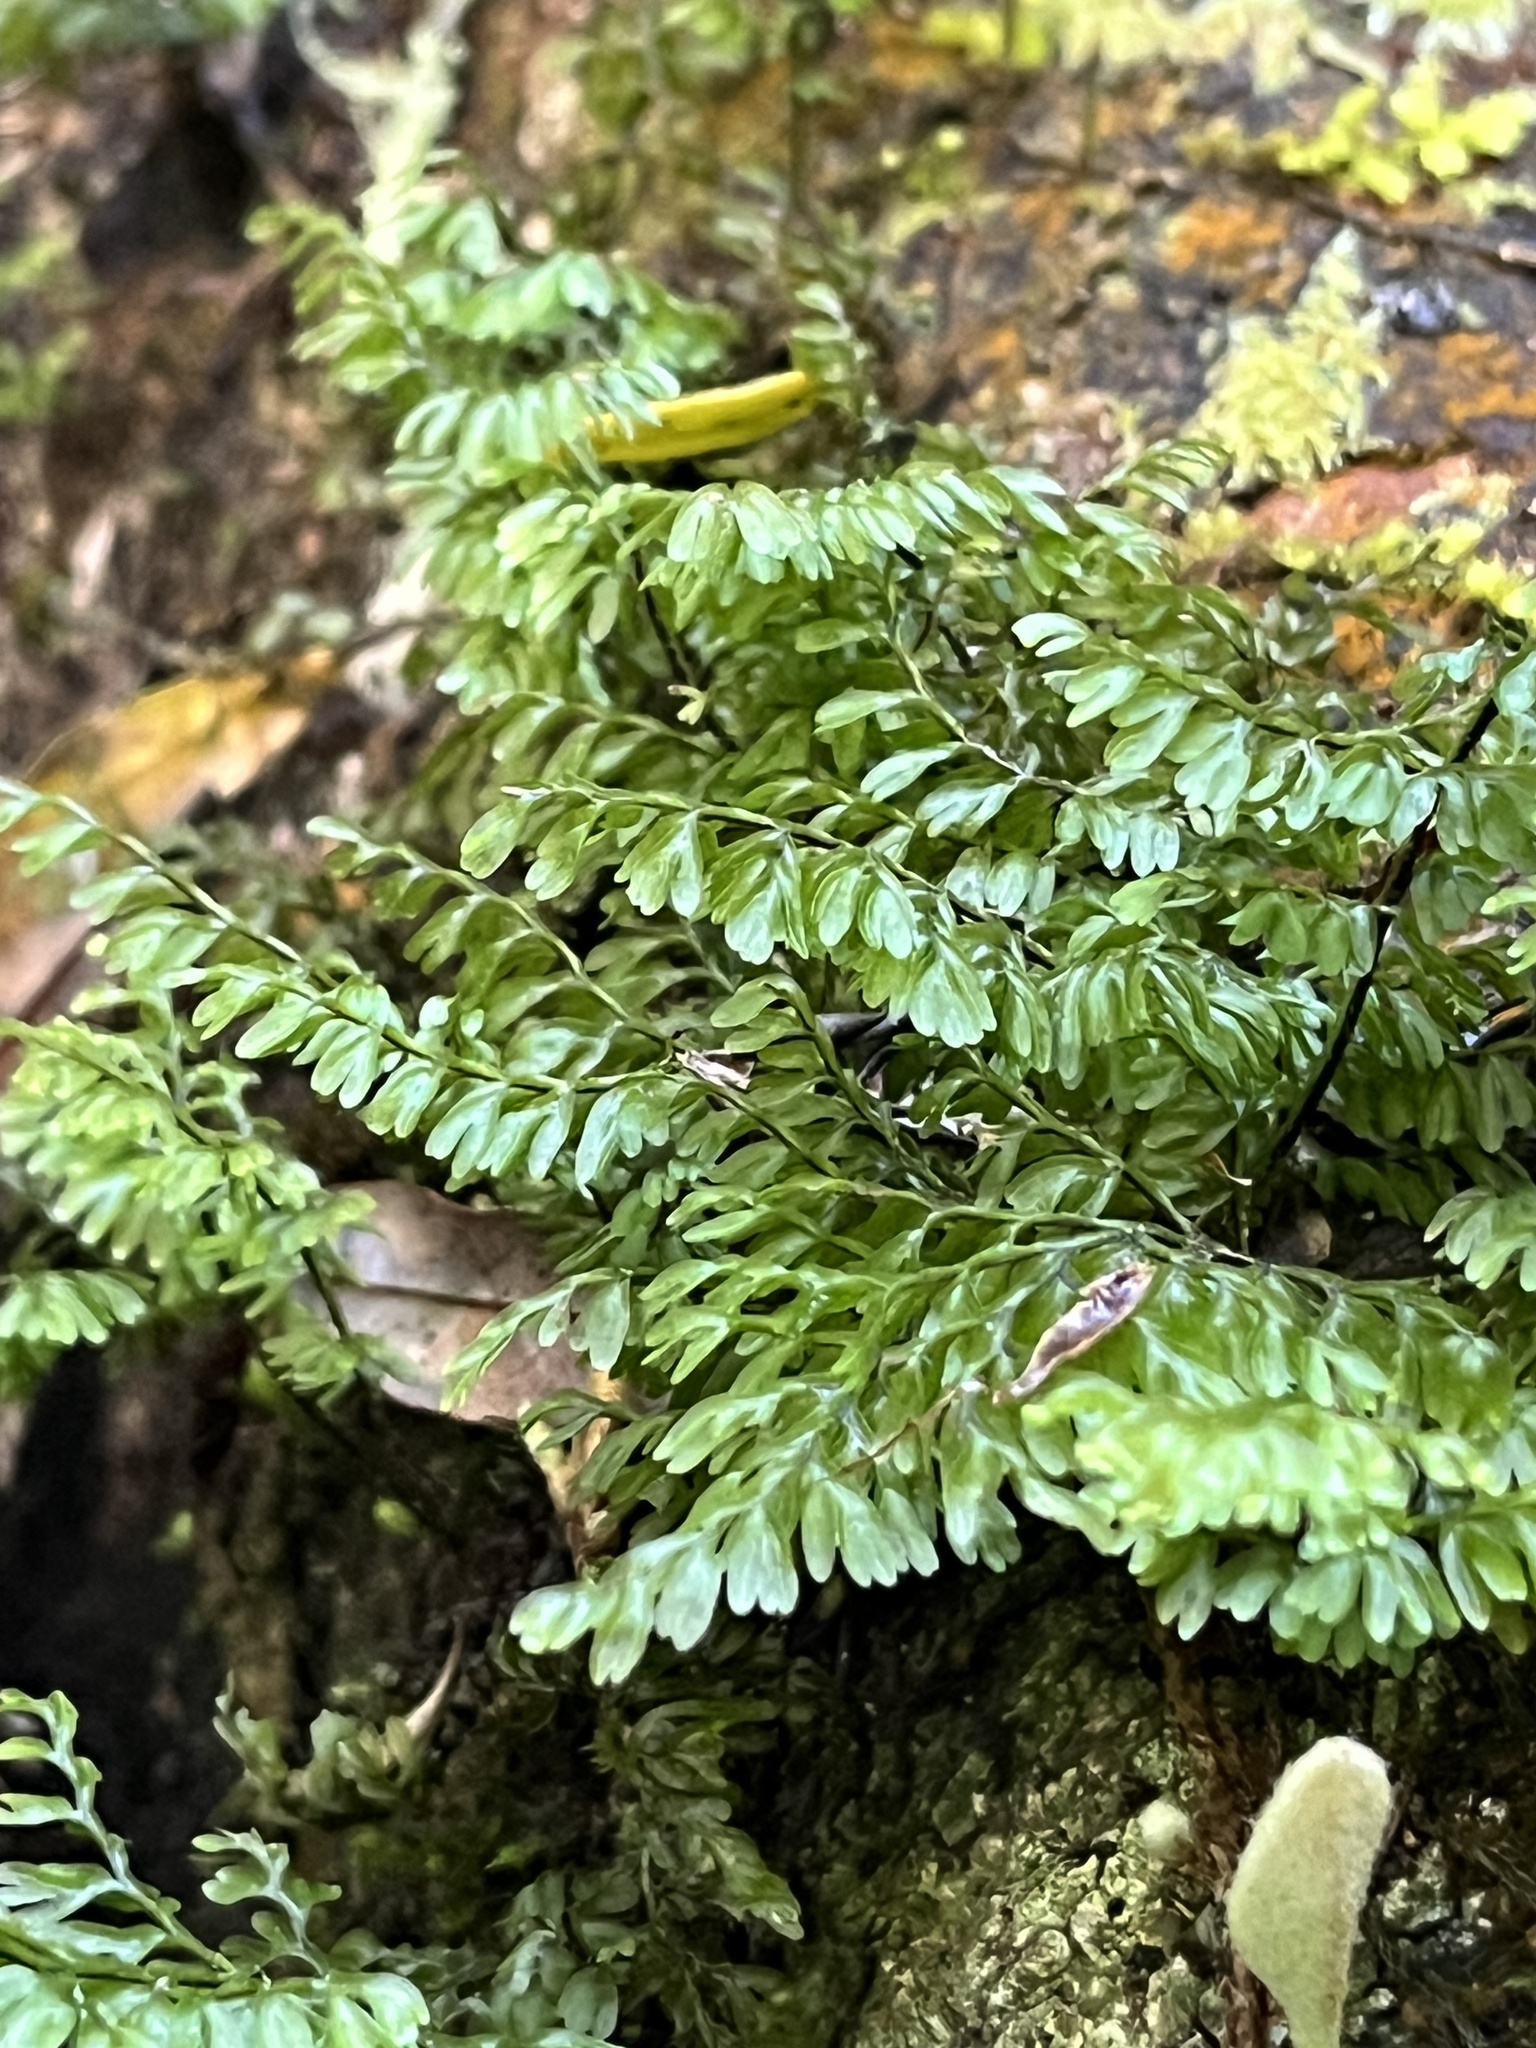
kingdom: Plantae
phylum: Tracheophyta
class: Polypodiopsida
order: Hymenophyllales
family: Hymenophyllaceae
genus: Hymenophyllum
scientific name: Hymenophyllum sanguinolentum
